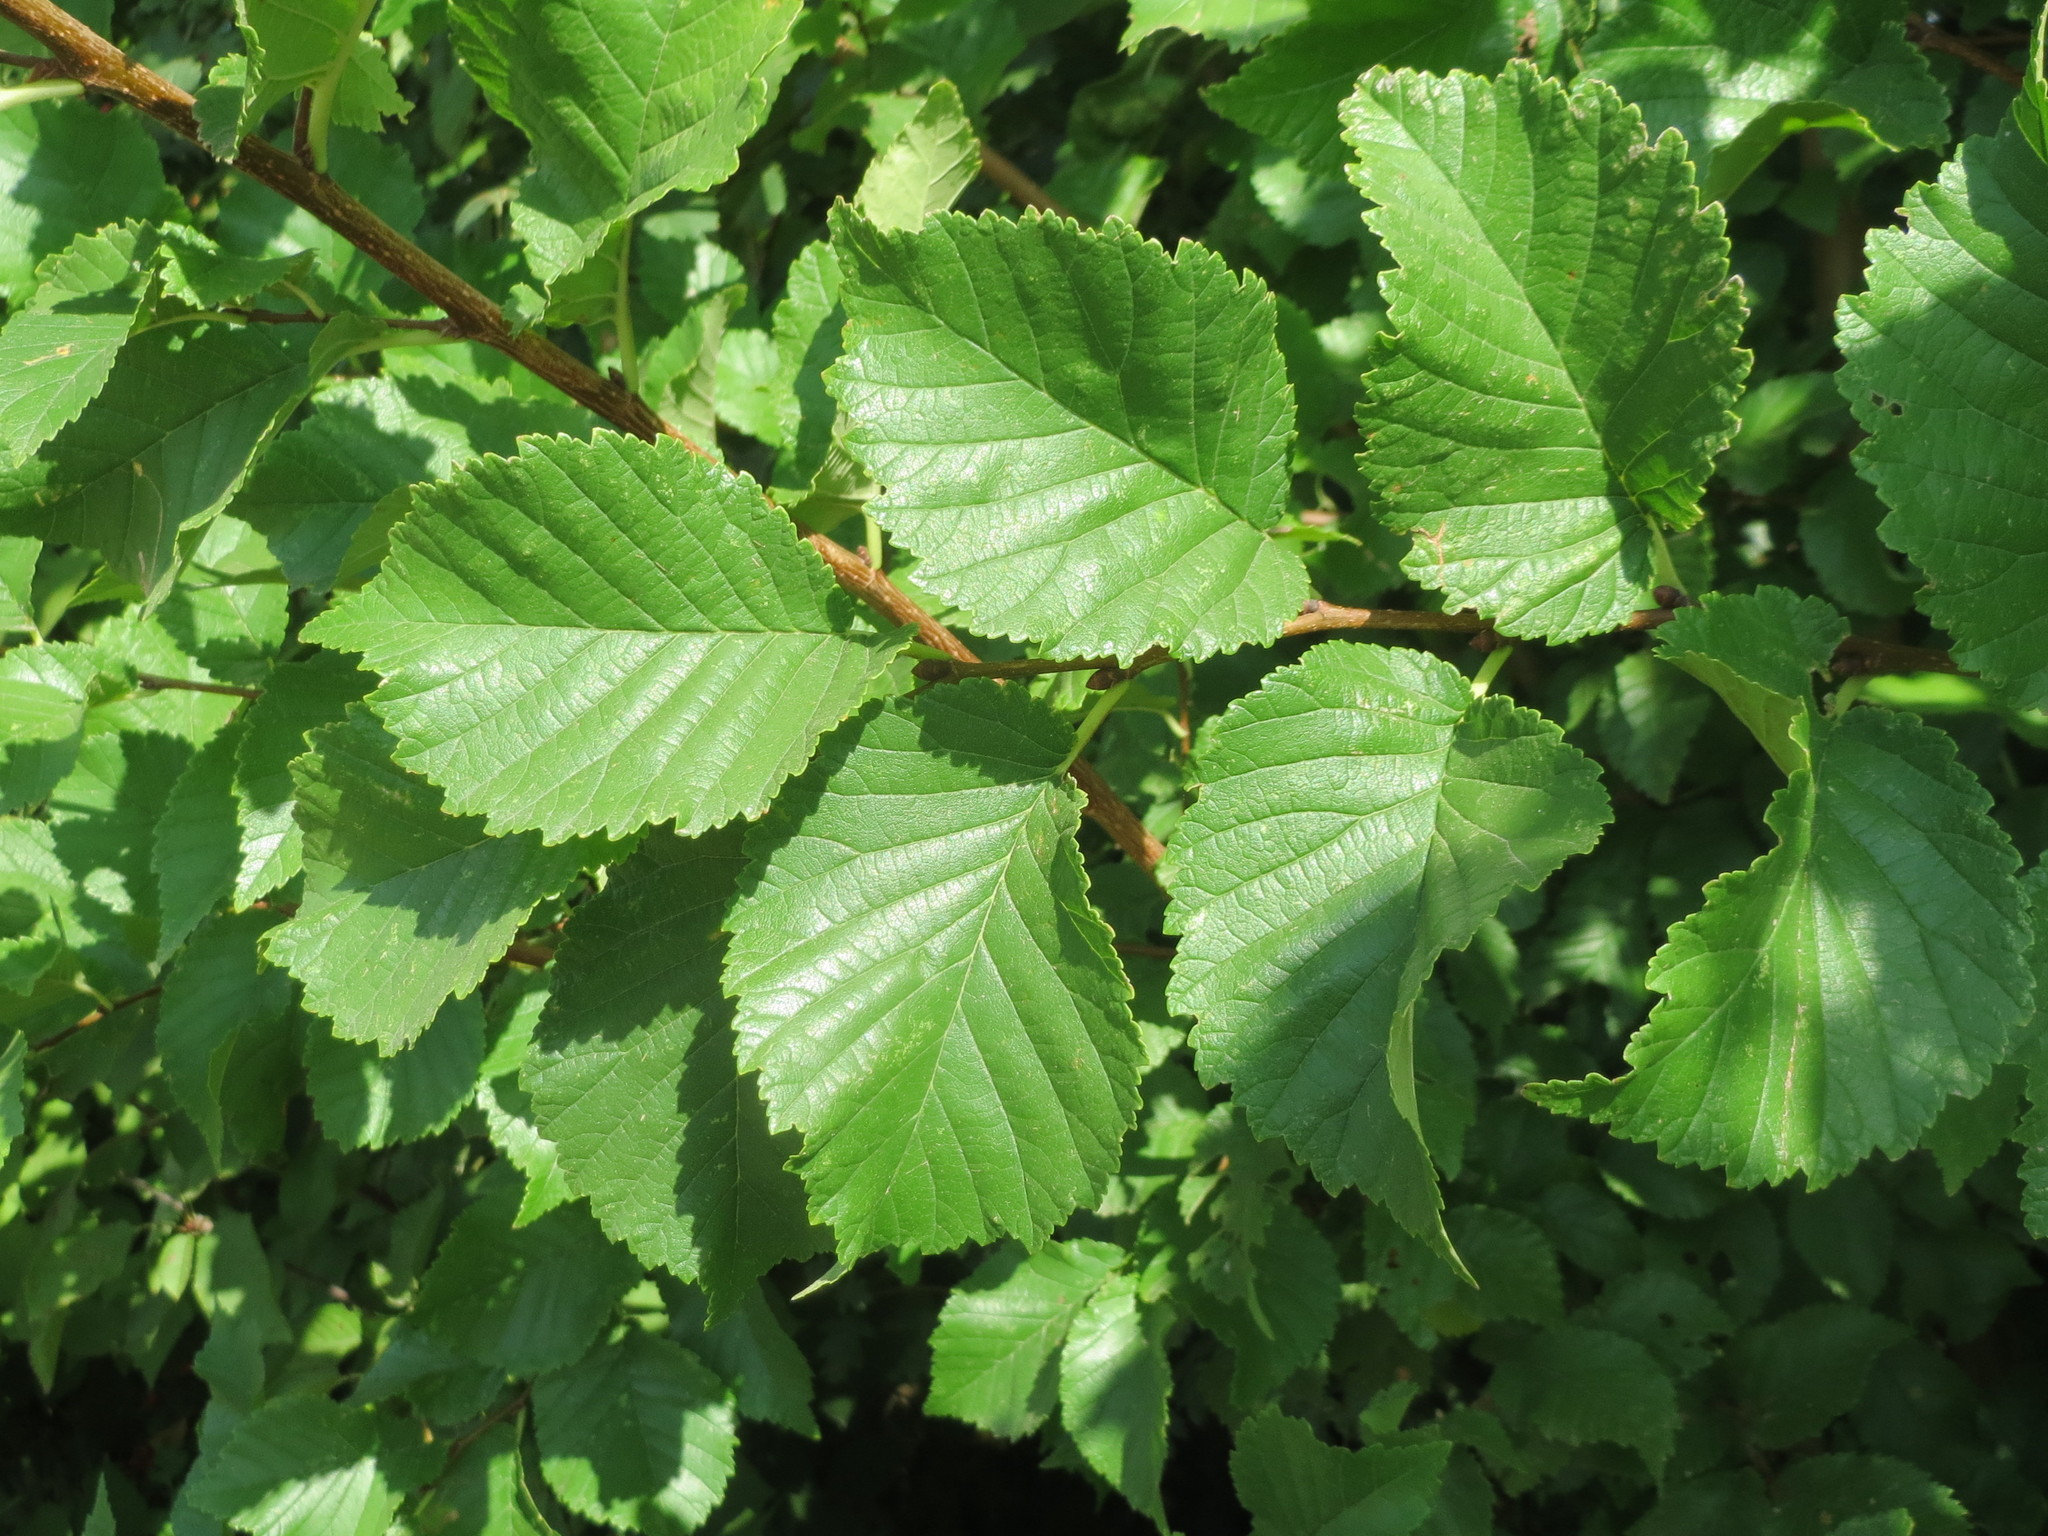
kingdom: Plantae
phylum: Tracheophyta
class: Magnoliopsida
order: Rosales
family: Ulmaceae
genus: Ulmus
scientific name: Ulmus minor
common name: Small-leaved elm
